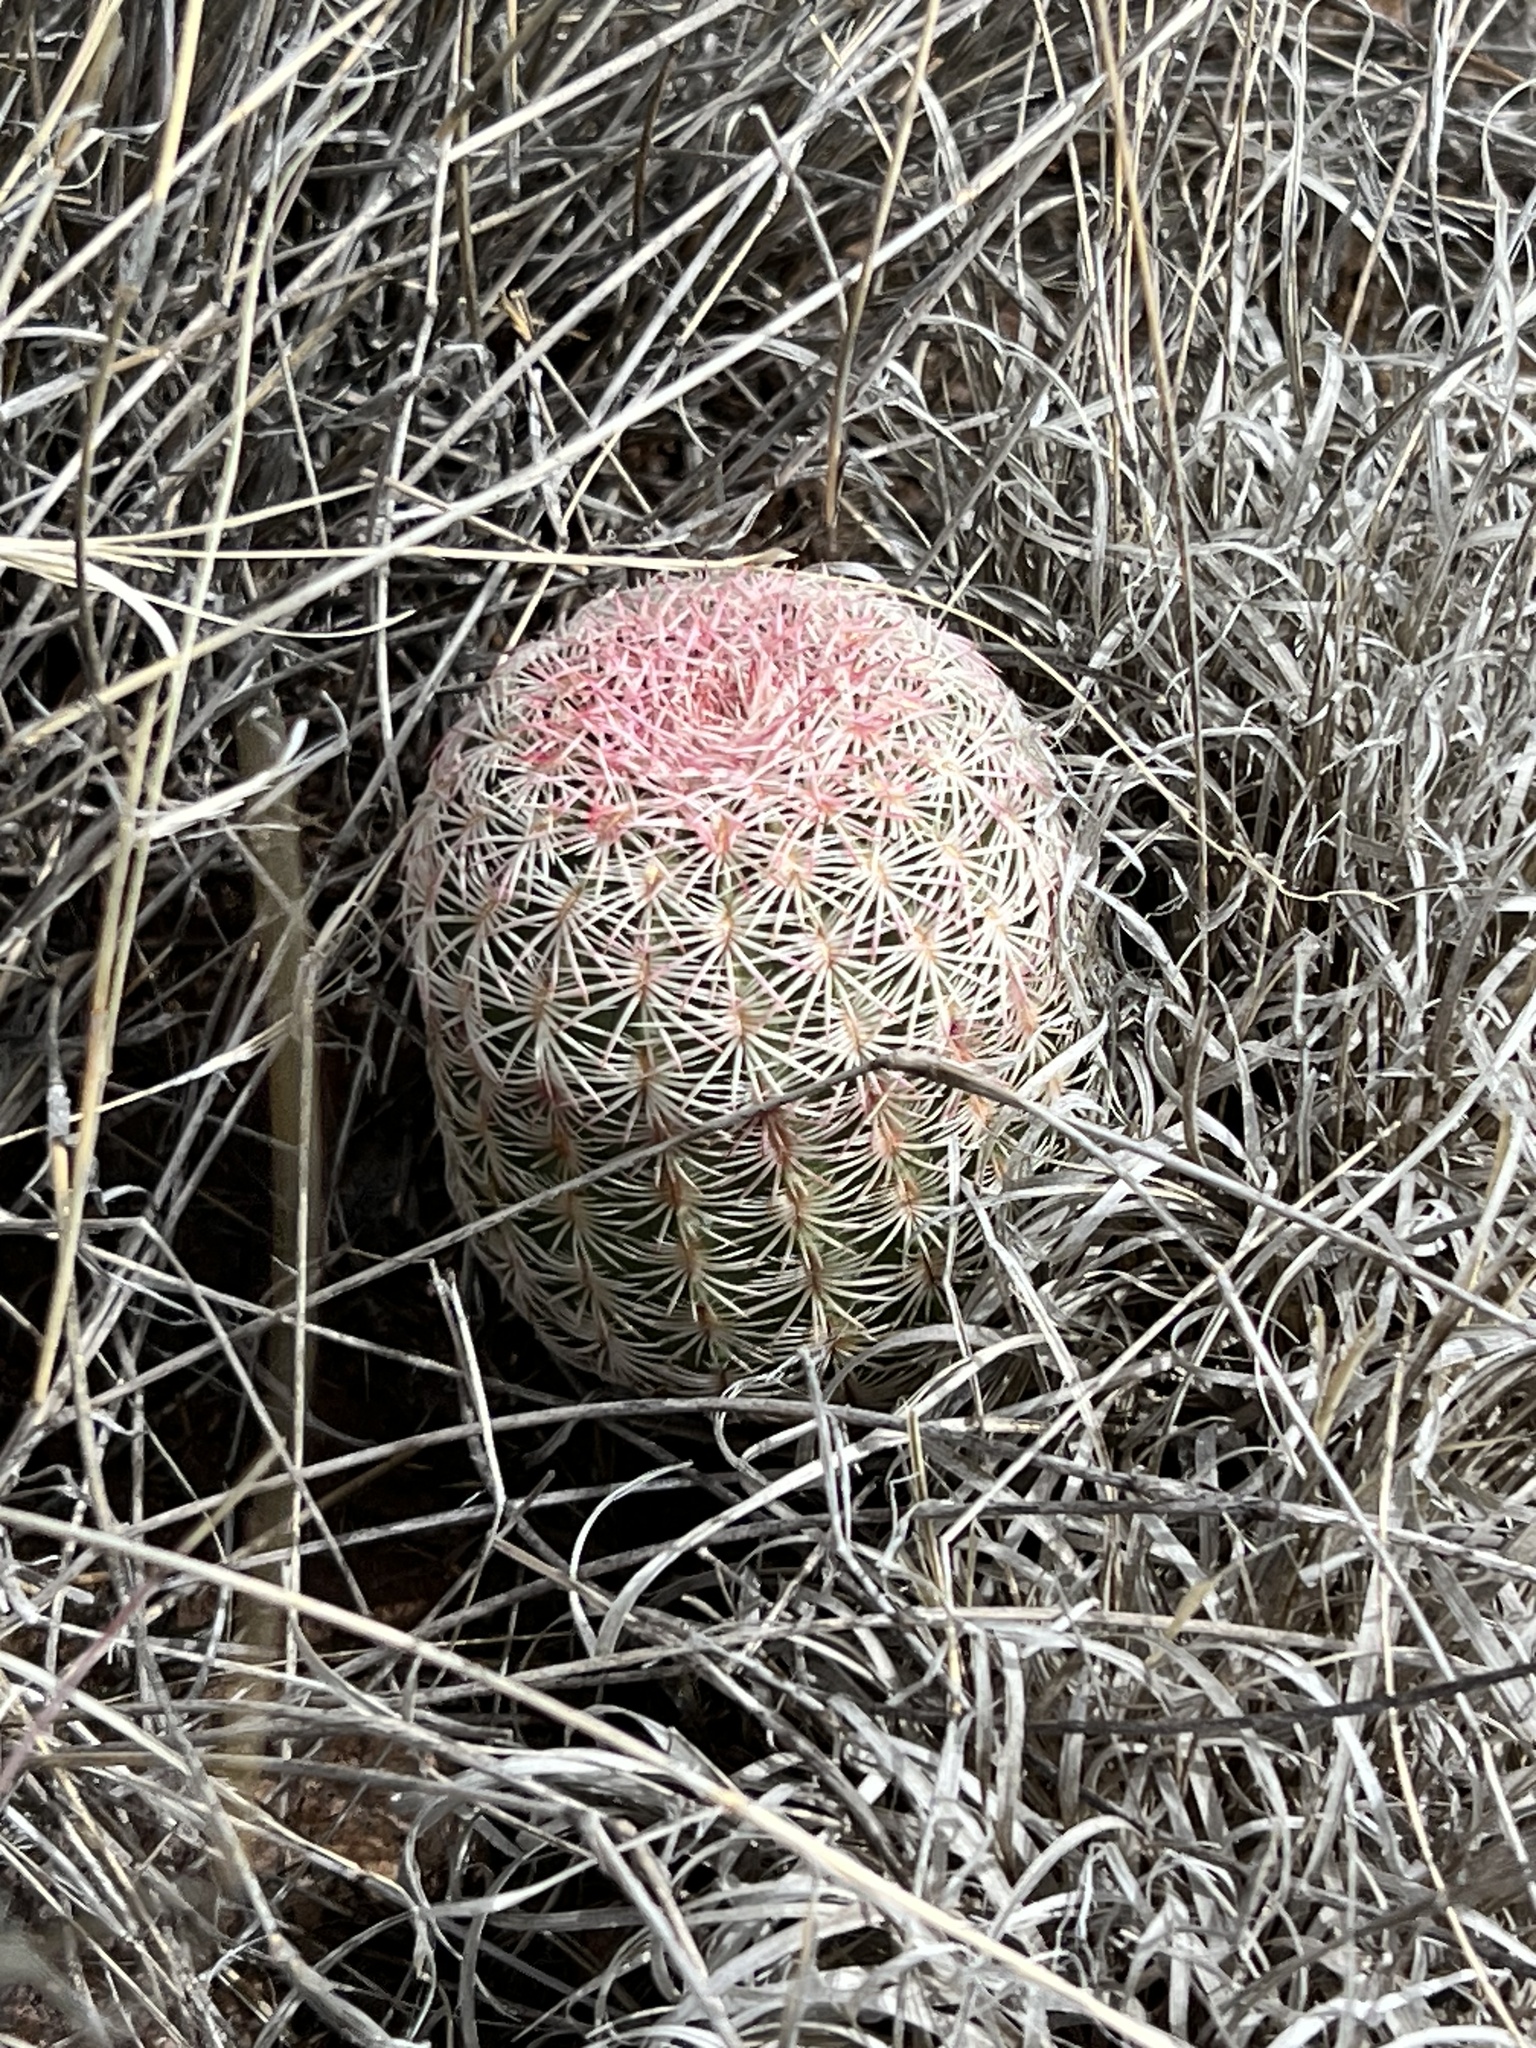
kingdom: Plantae
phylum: Tracheophyta
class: Magnoliopsida
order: Caryophyllales
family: Cactaceae
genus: Echinocereus
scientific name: Echinocereus rigidissimus
